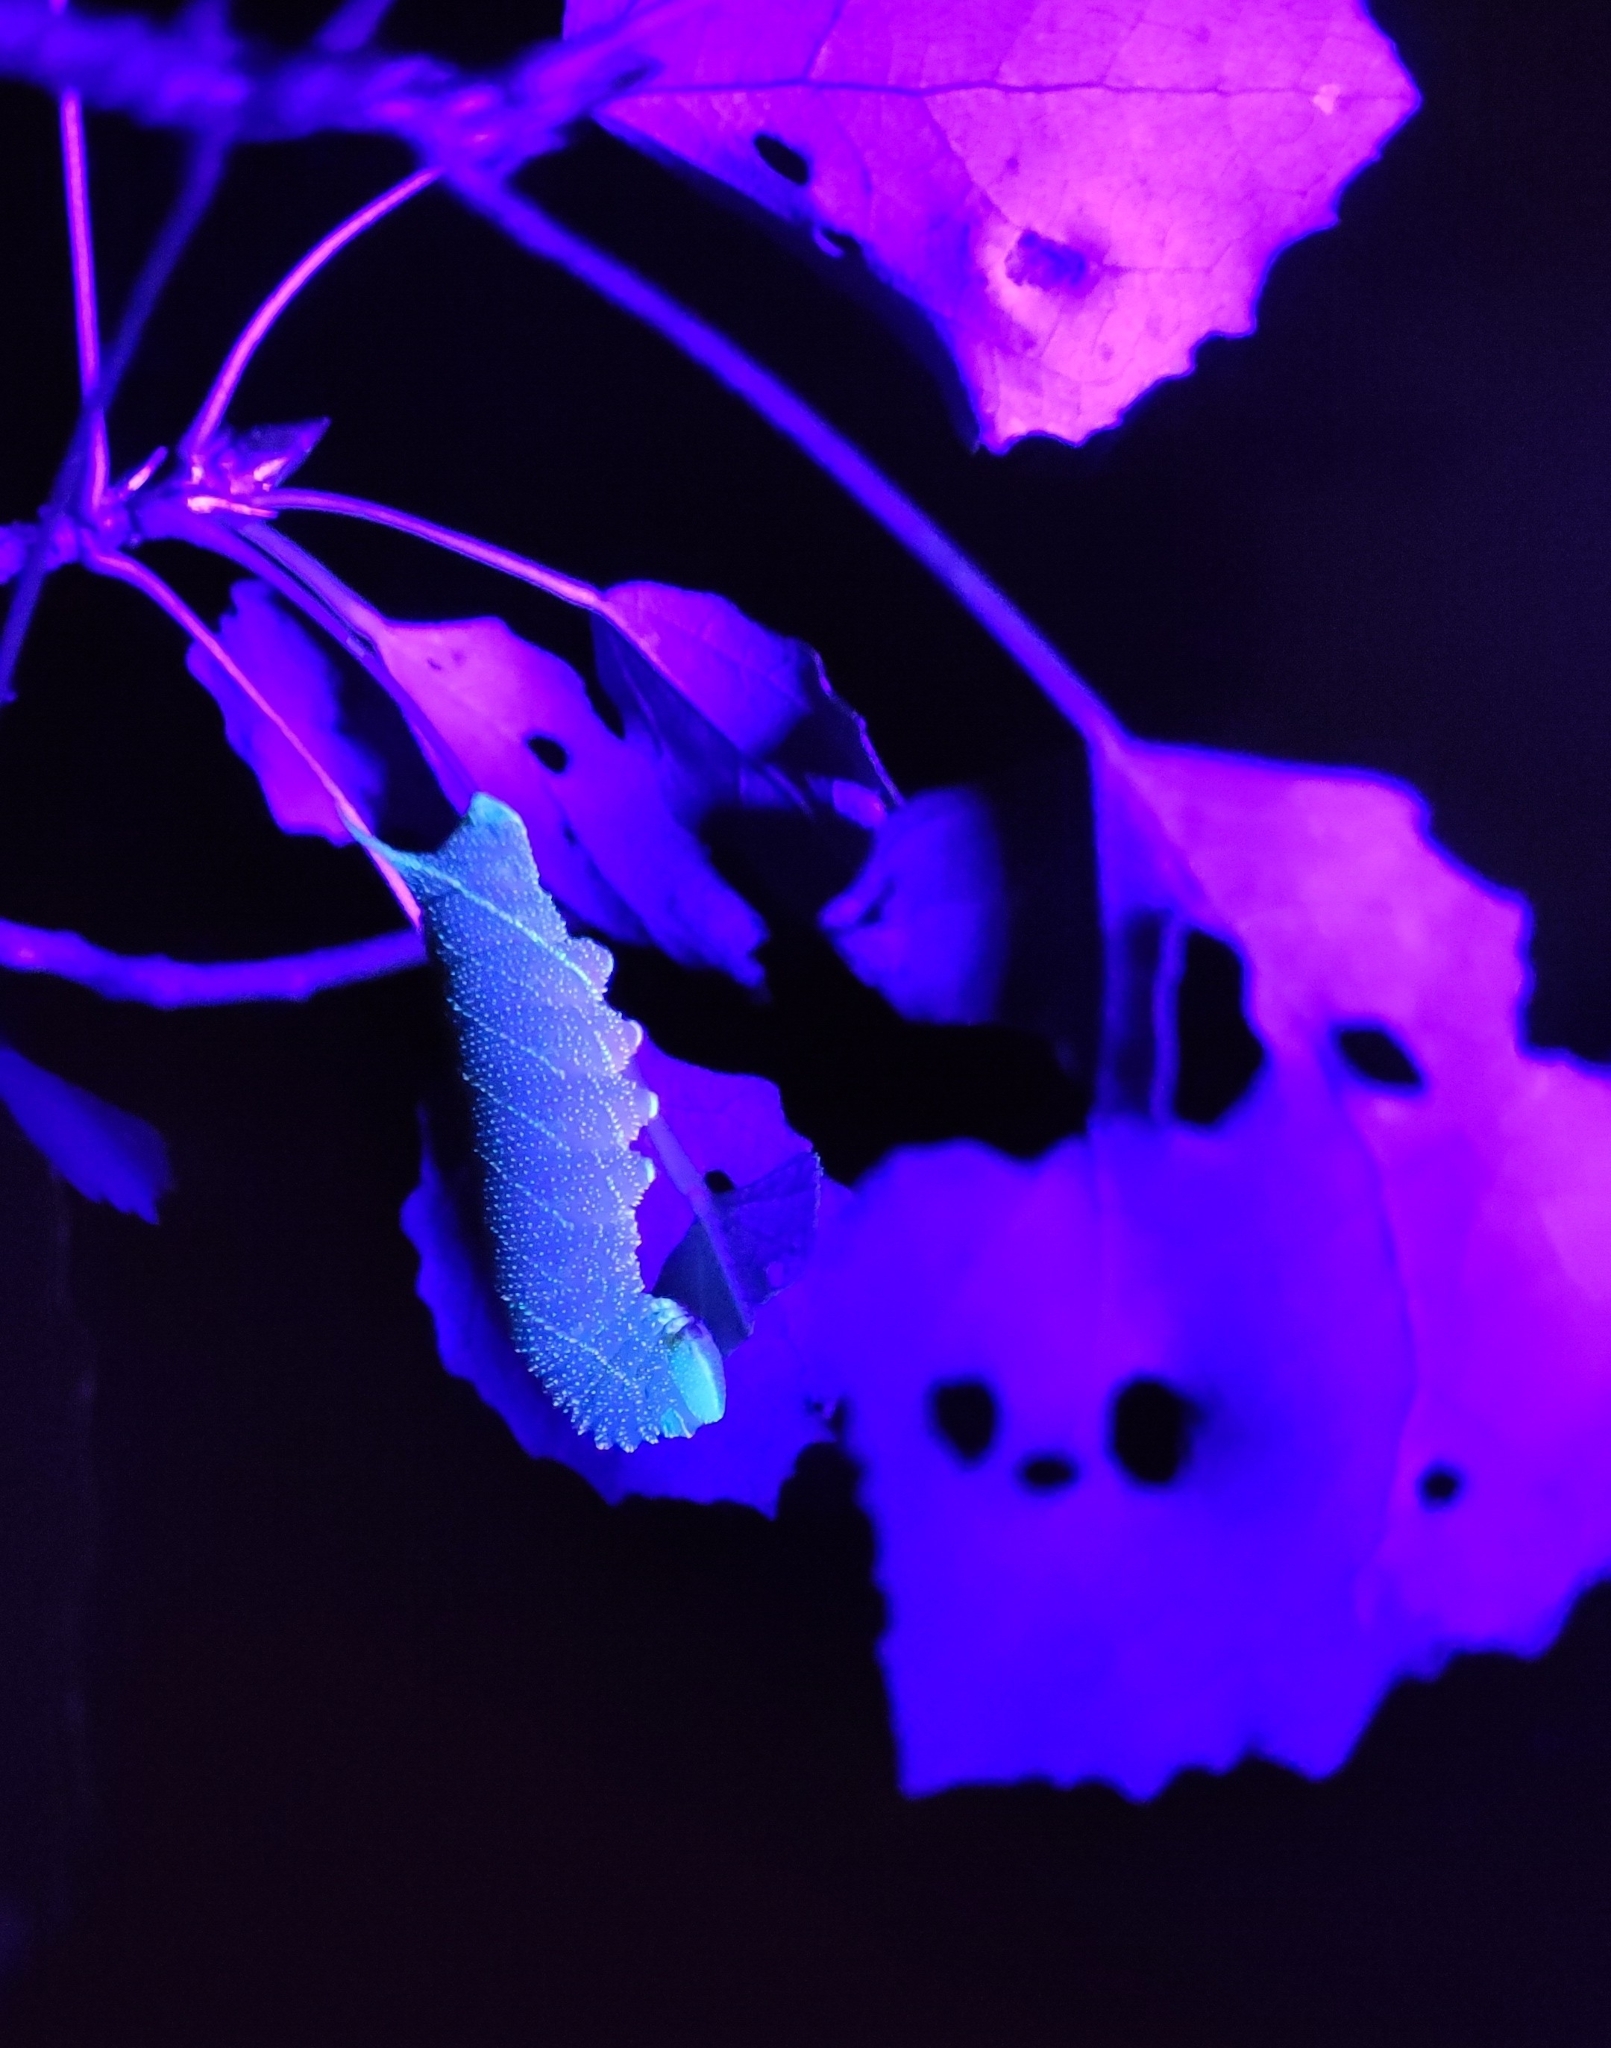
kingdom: Animalia
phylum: Arthropoda
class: Insecta
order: Lepidoptera
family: Sphingidae
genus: Laothoe
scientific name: Laothoe populi
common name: Poplar hawk-moth
